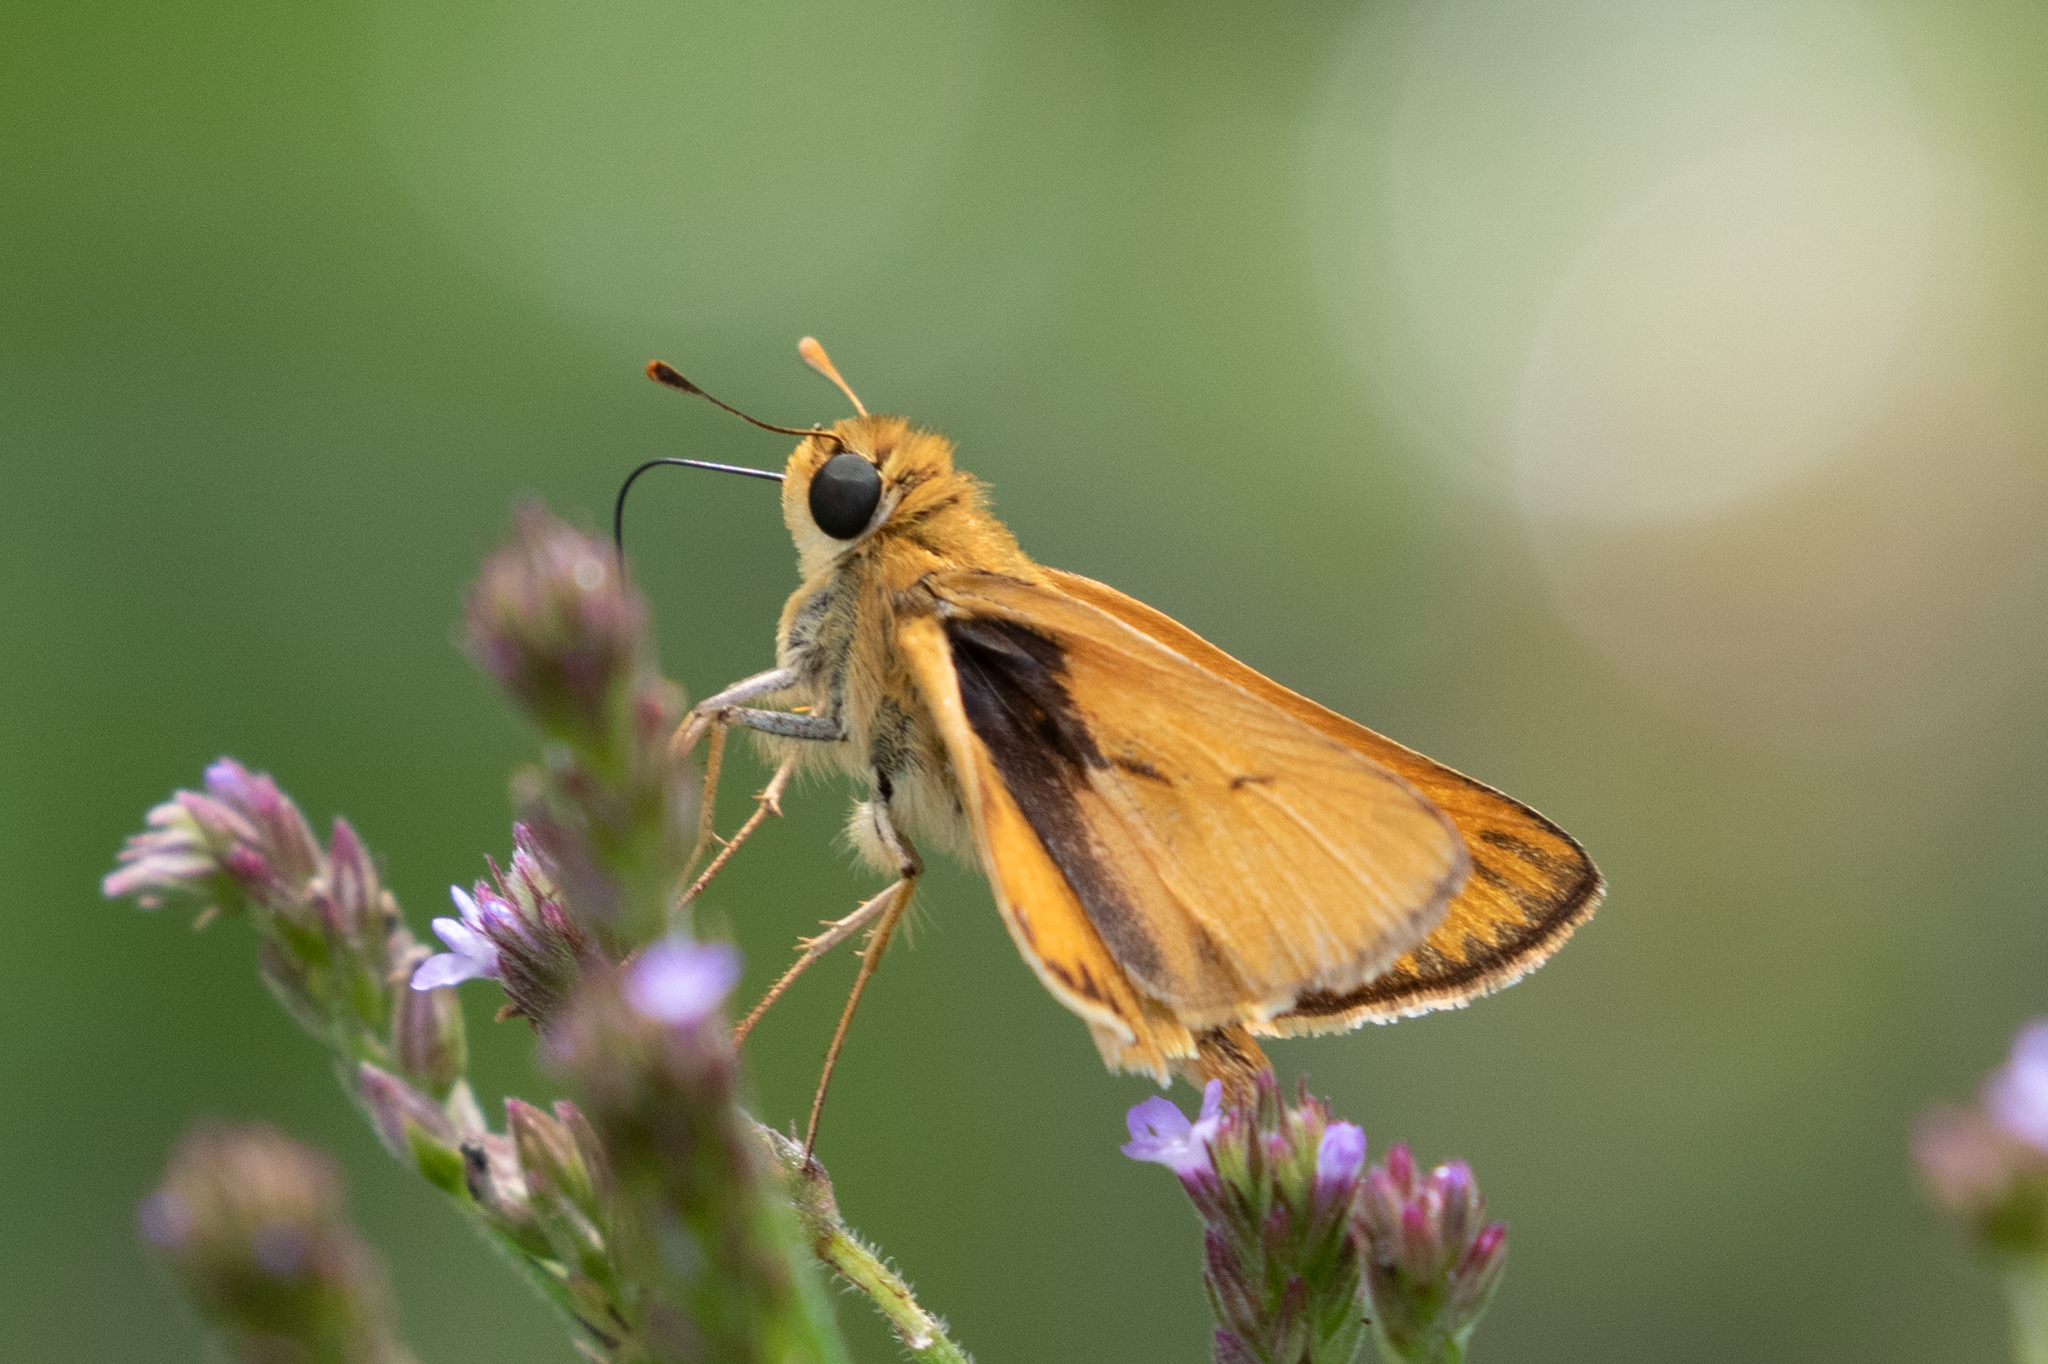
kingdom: Animalia
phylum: Arthropoda
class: Insecta
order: Lepidoptera
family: Hesperiidae
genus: Hylephila
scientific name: Hylephila phyleus
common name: Fiery skipper
